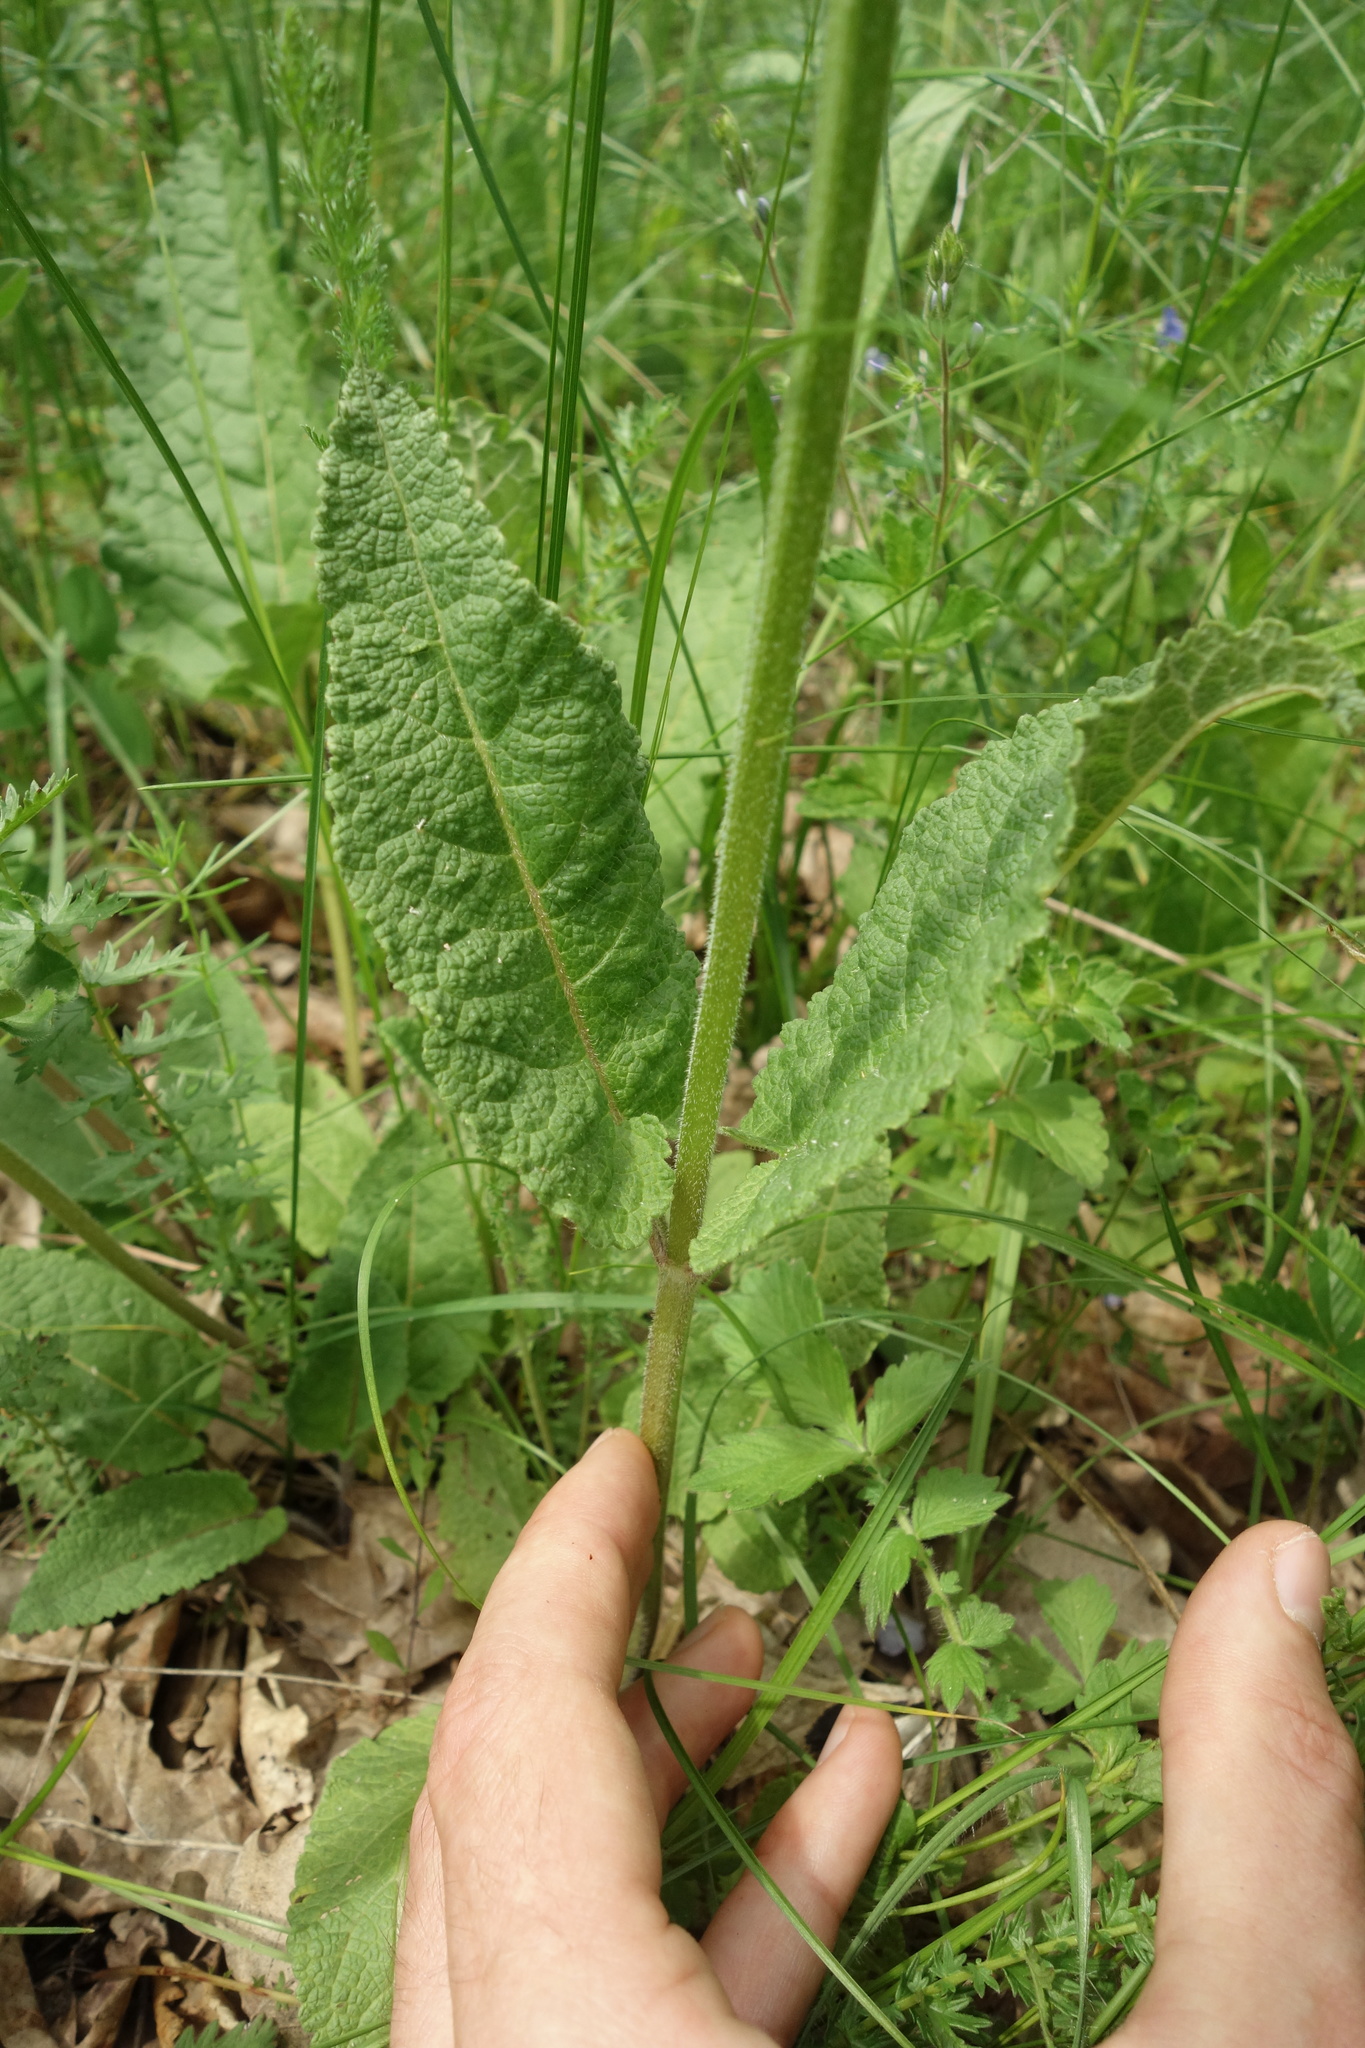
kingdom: Plantae
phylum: Tracheophyta
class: Magnoliopsida
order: Lamiales
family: Lamiaceae
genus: Salvia
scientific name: Salvia pratensis
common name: Meadow sage
